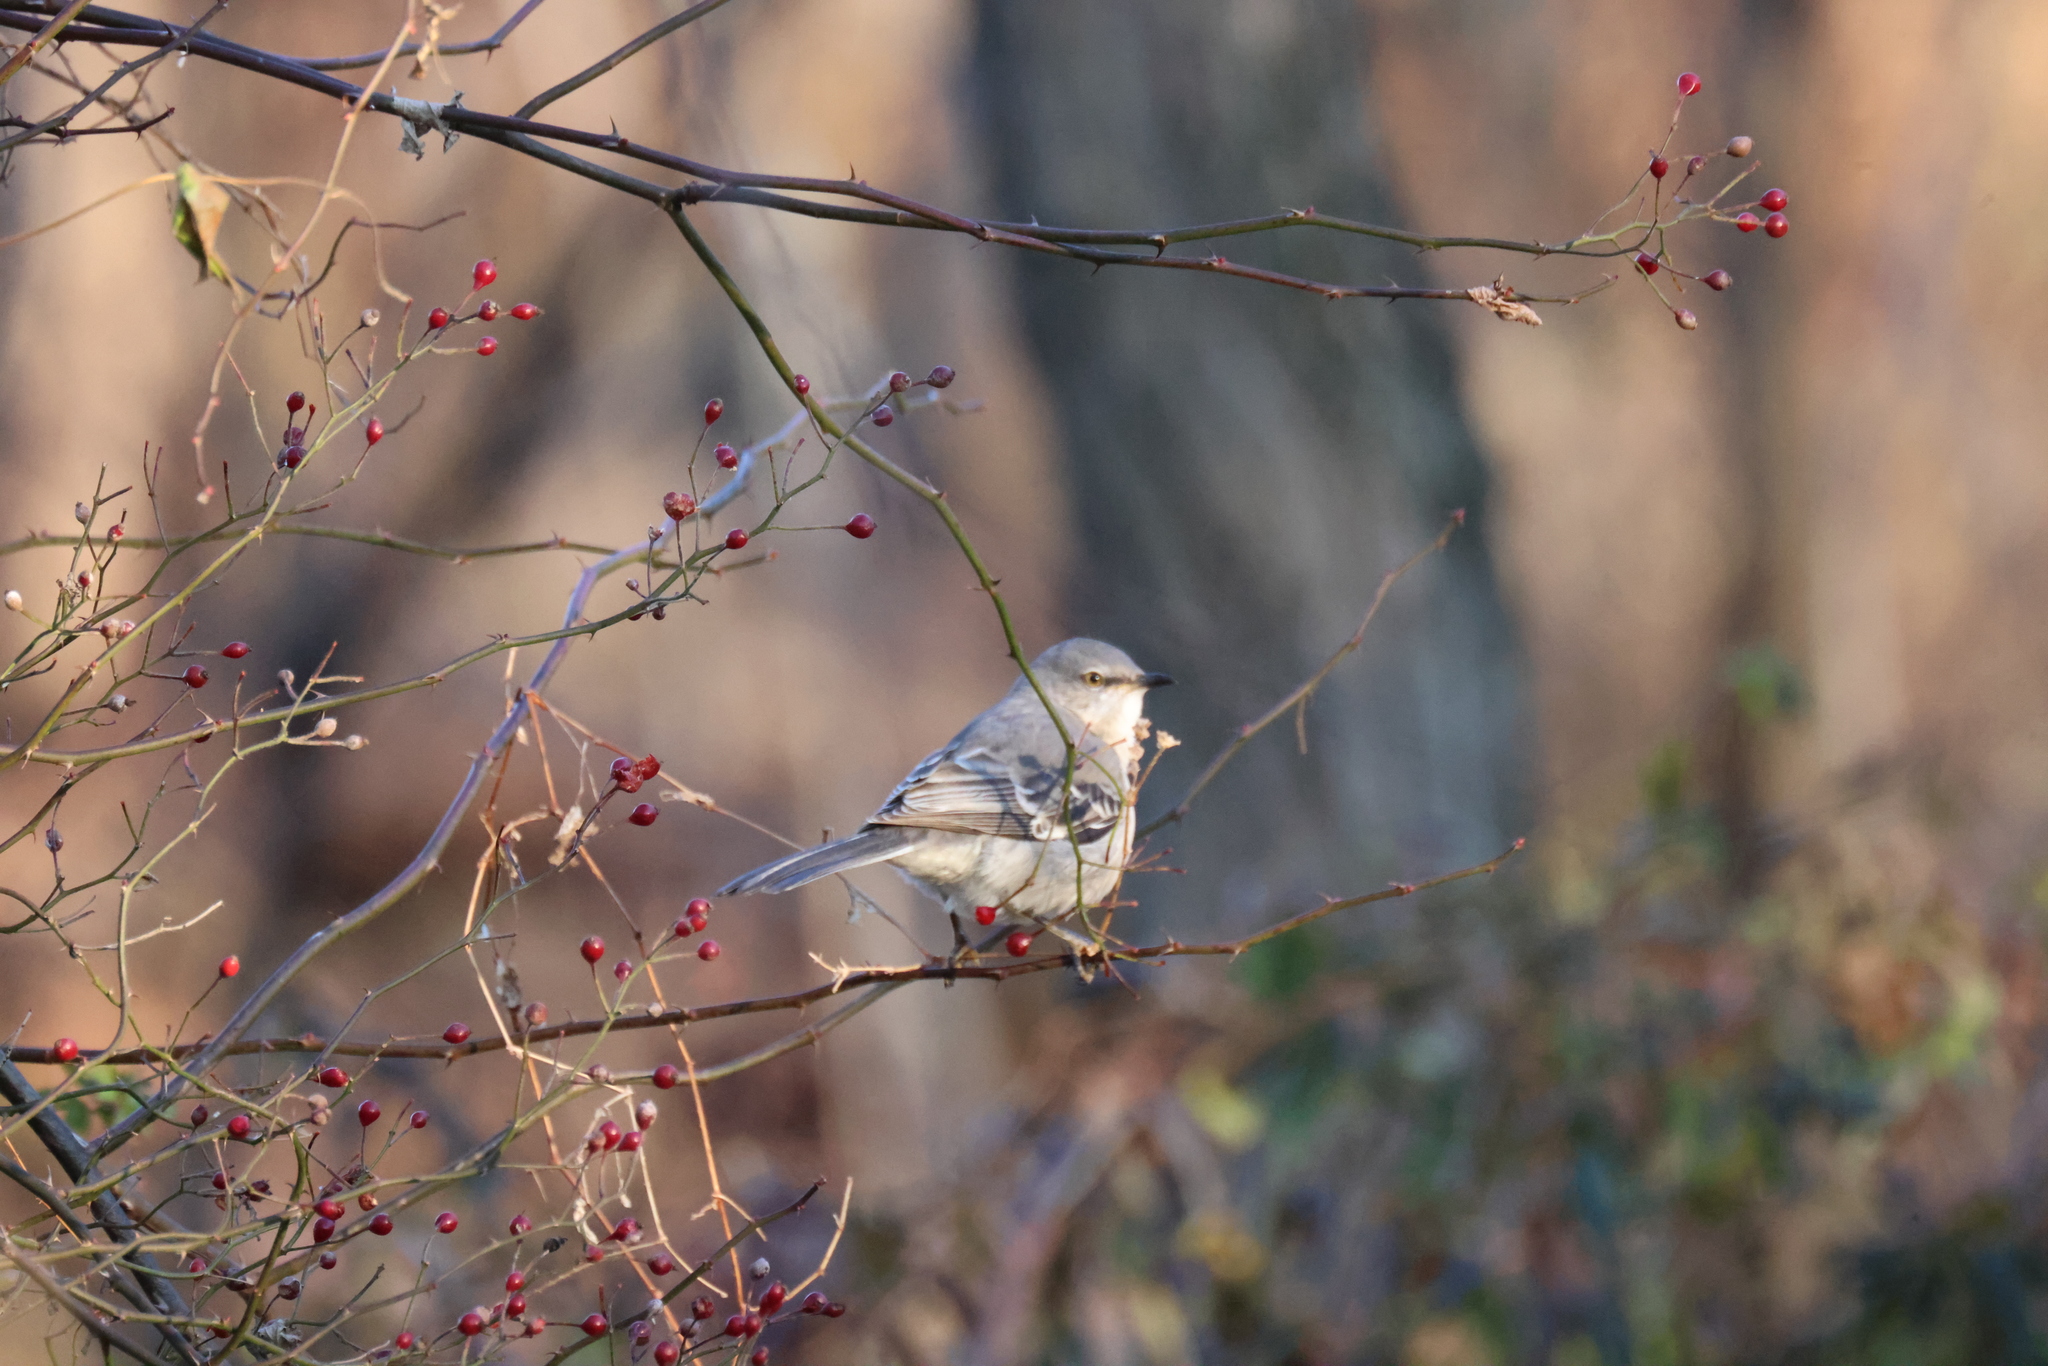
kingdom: Animalia
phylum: Chordata
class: Aves
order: Passeriformes
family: Mimidae
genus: Mimus
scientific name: Mimus polyglottos
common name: Northern mockingbird
